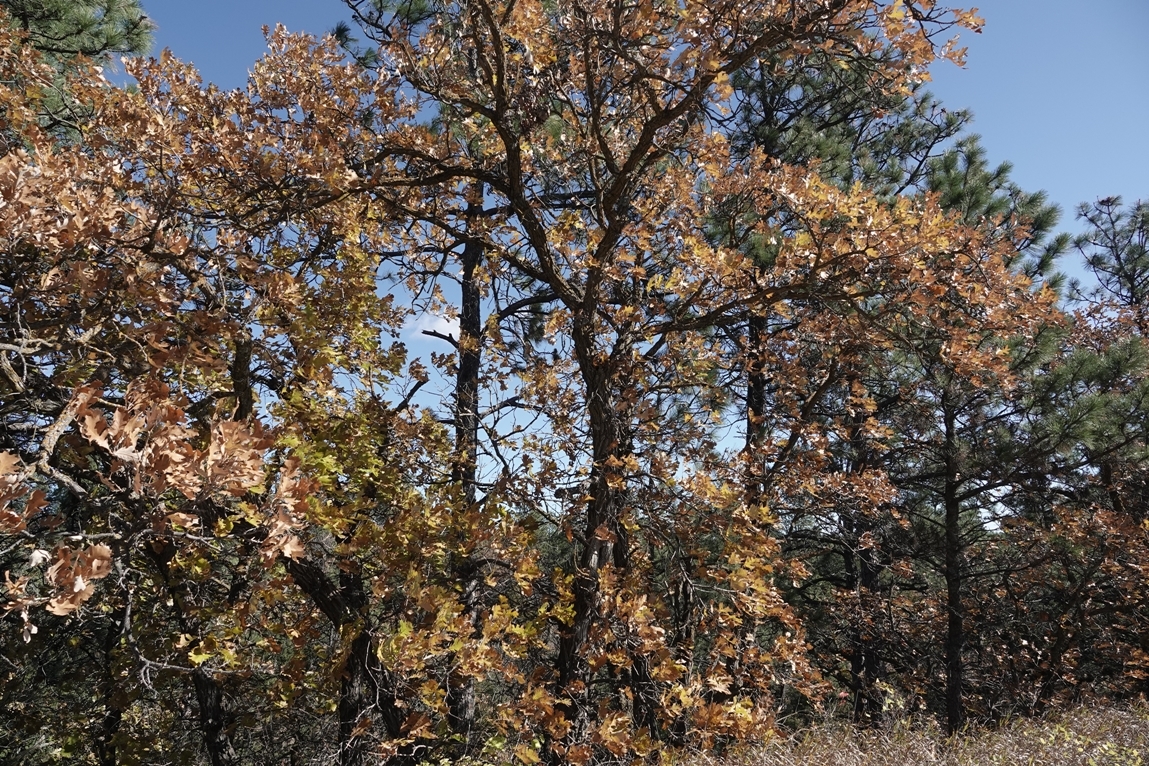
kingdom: Plantae
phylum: Tracheophyta
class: Magnoliopsida
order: Fagales
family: Fagaceae
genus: Quercus
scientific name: Quercus macrocarpa
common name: Bur oak
